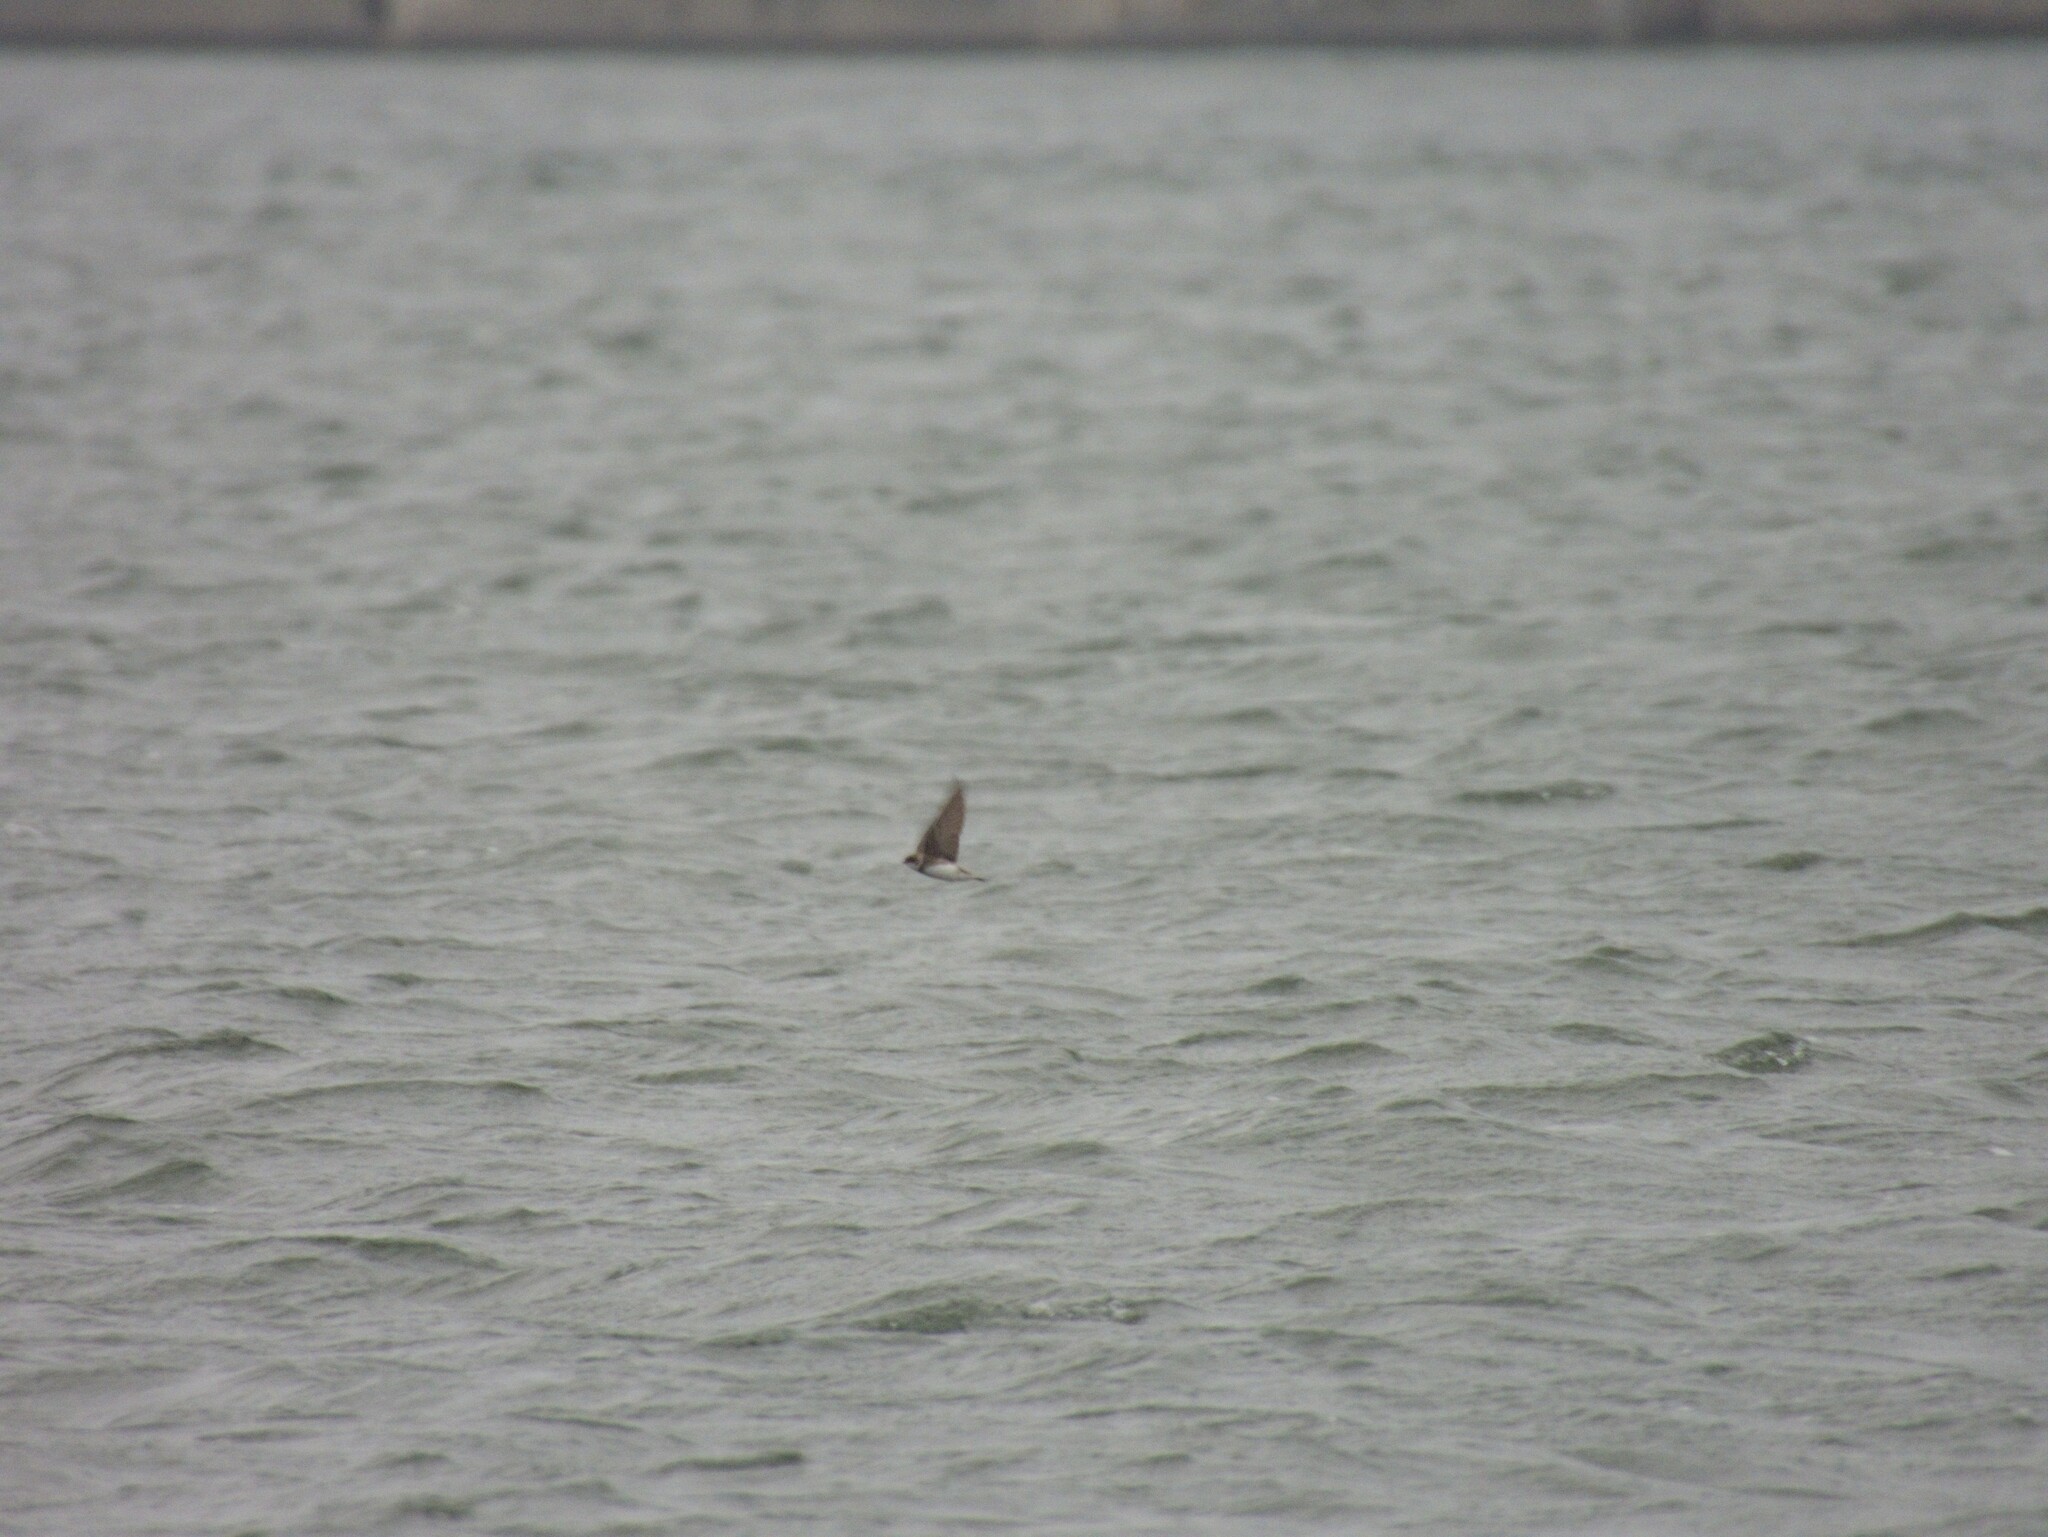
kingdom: Animalia
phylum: Chordata
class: Aves
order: Passeriformes
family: Hirundinidae
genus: Riparia
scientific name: Riparia riparia
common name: Sand martin
